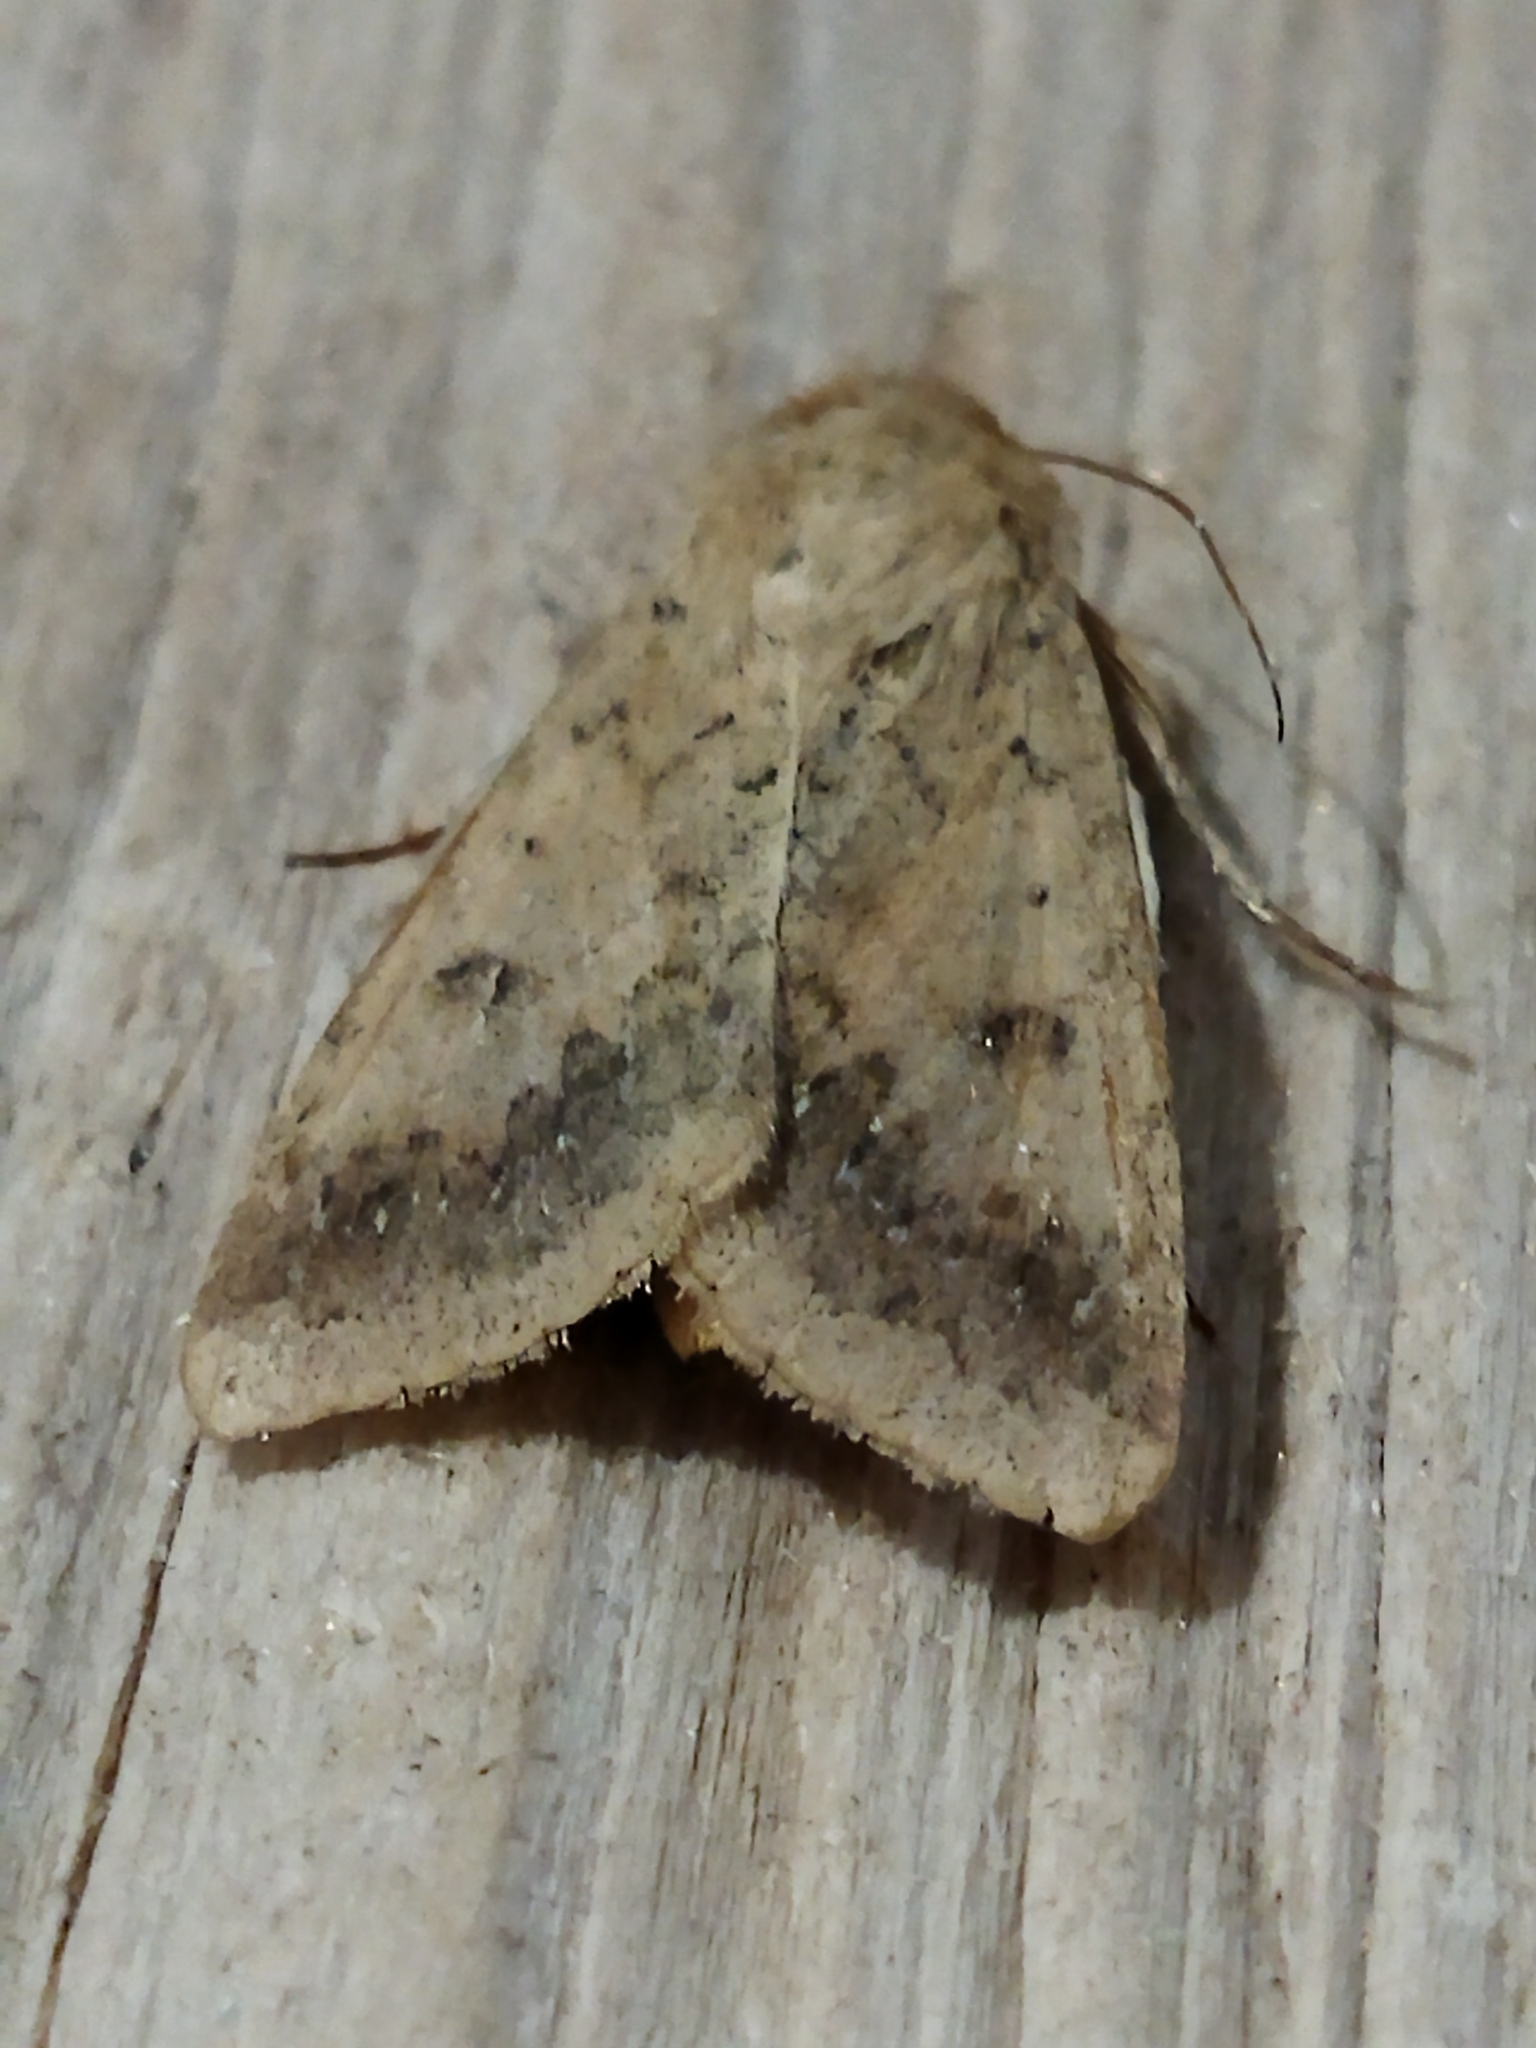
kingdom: Animalia
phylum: Arthropoda
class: Insecta
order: Lepidoptera
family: Noctuidae
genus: Helicoverpa
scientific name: Helicoverpa armigera
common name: Cotton bollworm
